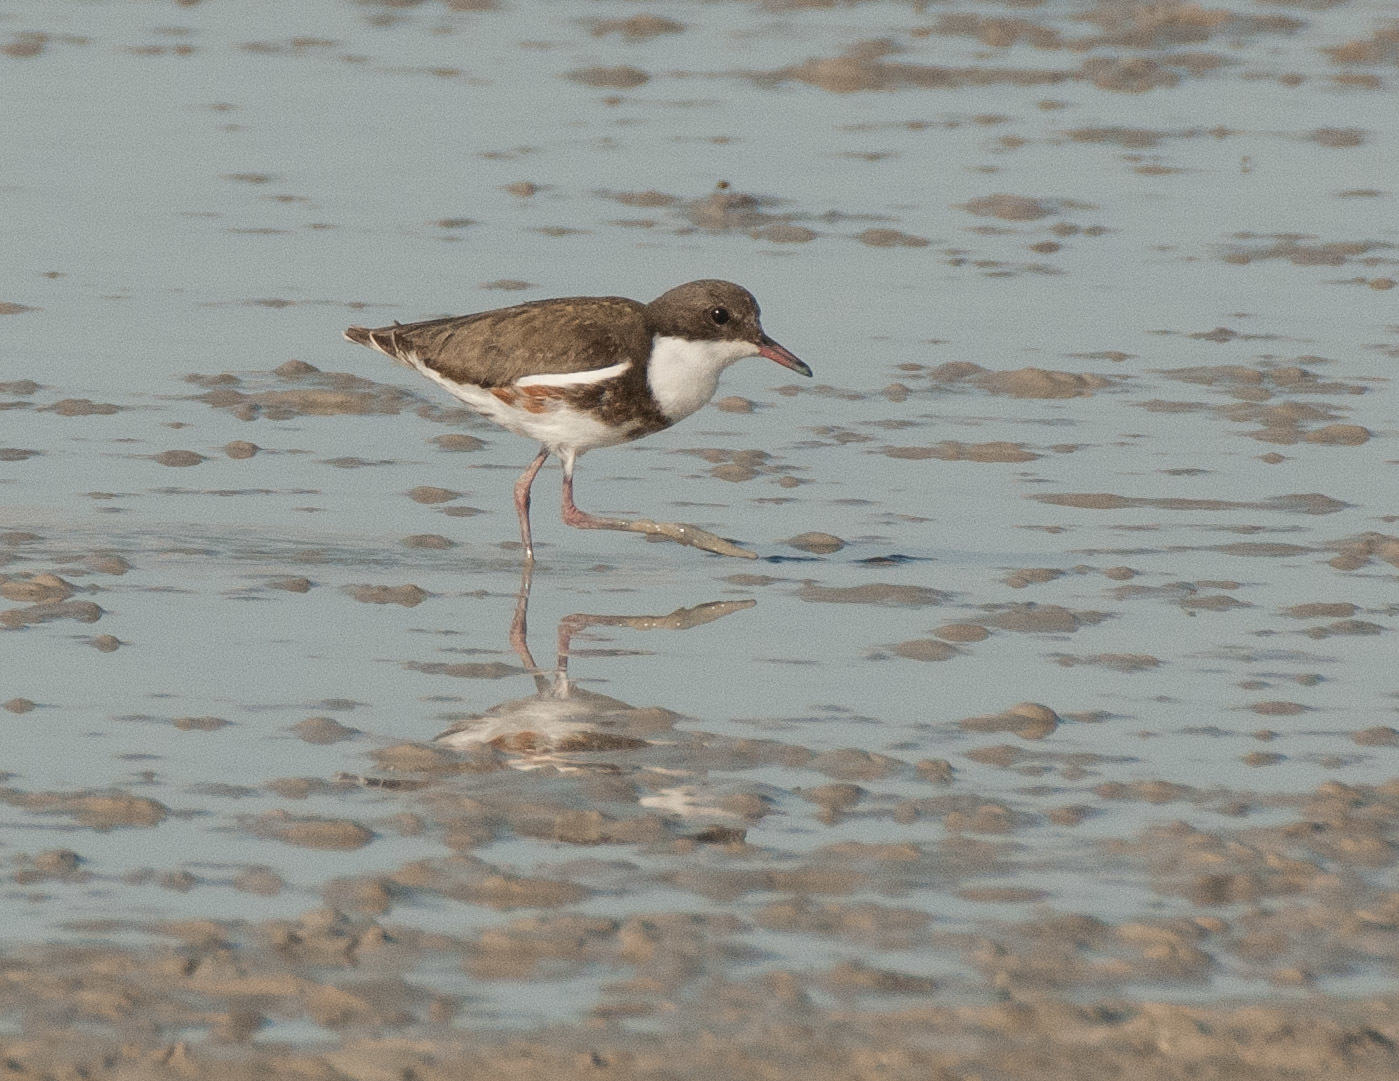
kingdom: Animalia
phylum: Chordata
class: Aves
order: Charadriiformes
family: Charadriidae
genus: Erythrogonys
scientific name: Erythrogonys cinctus
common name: Red-kneed dotterel
